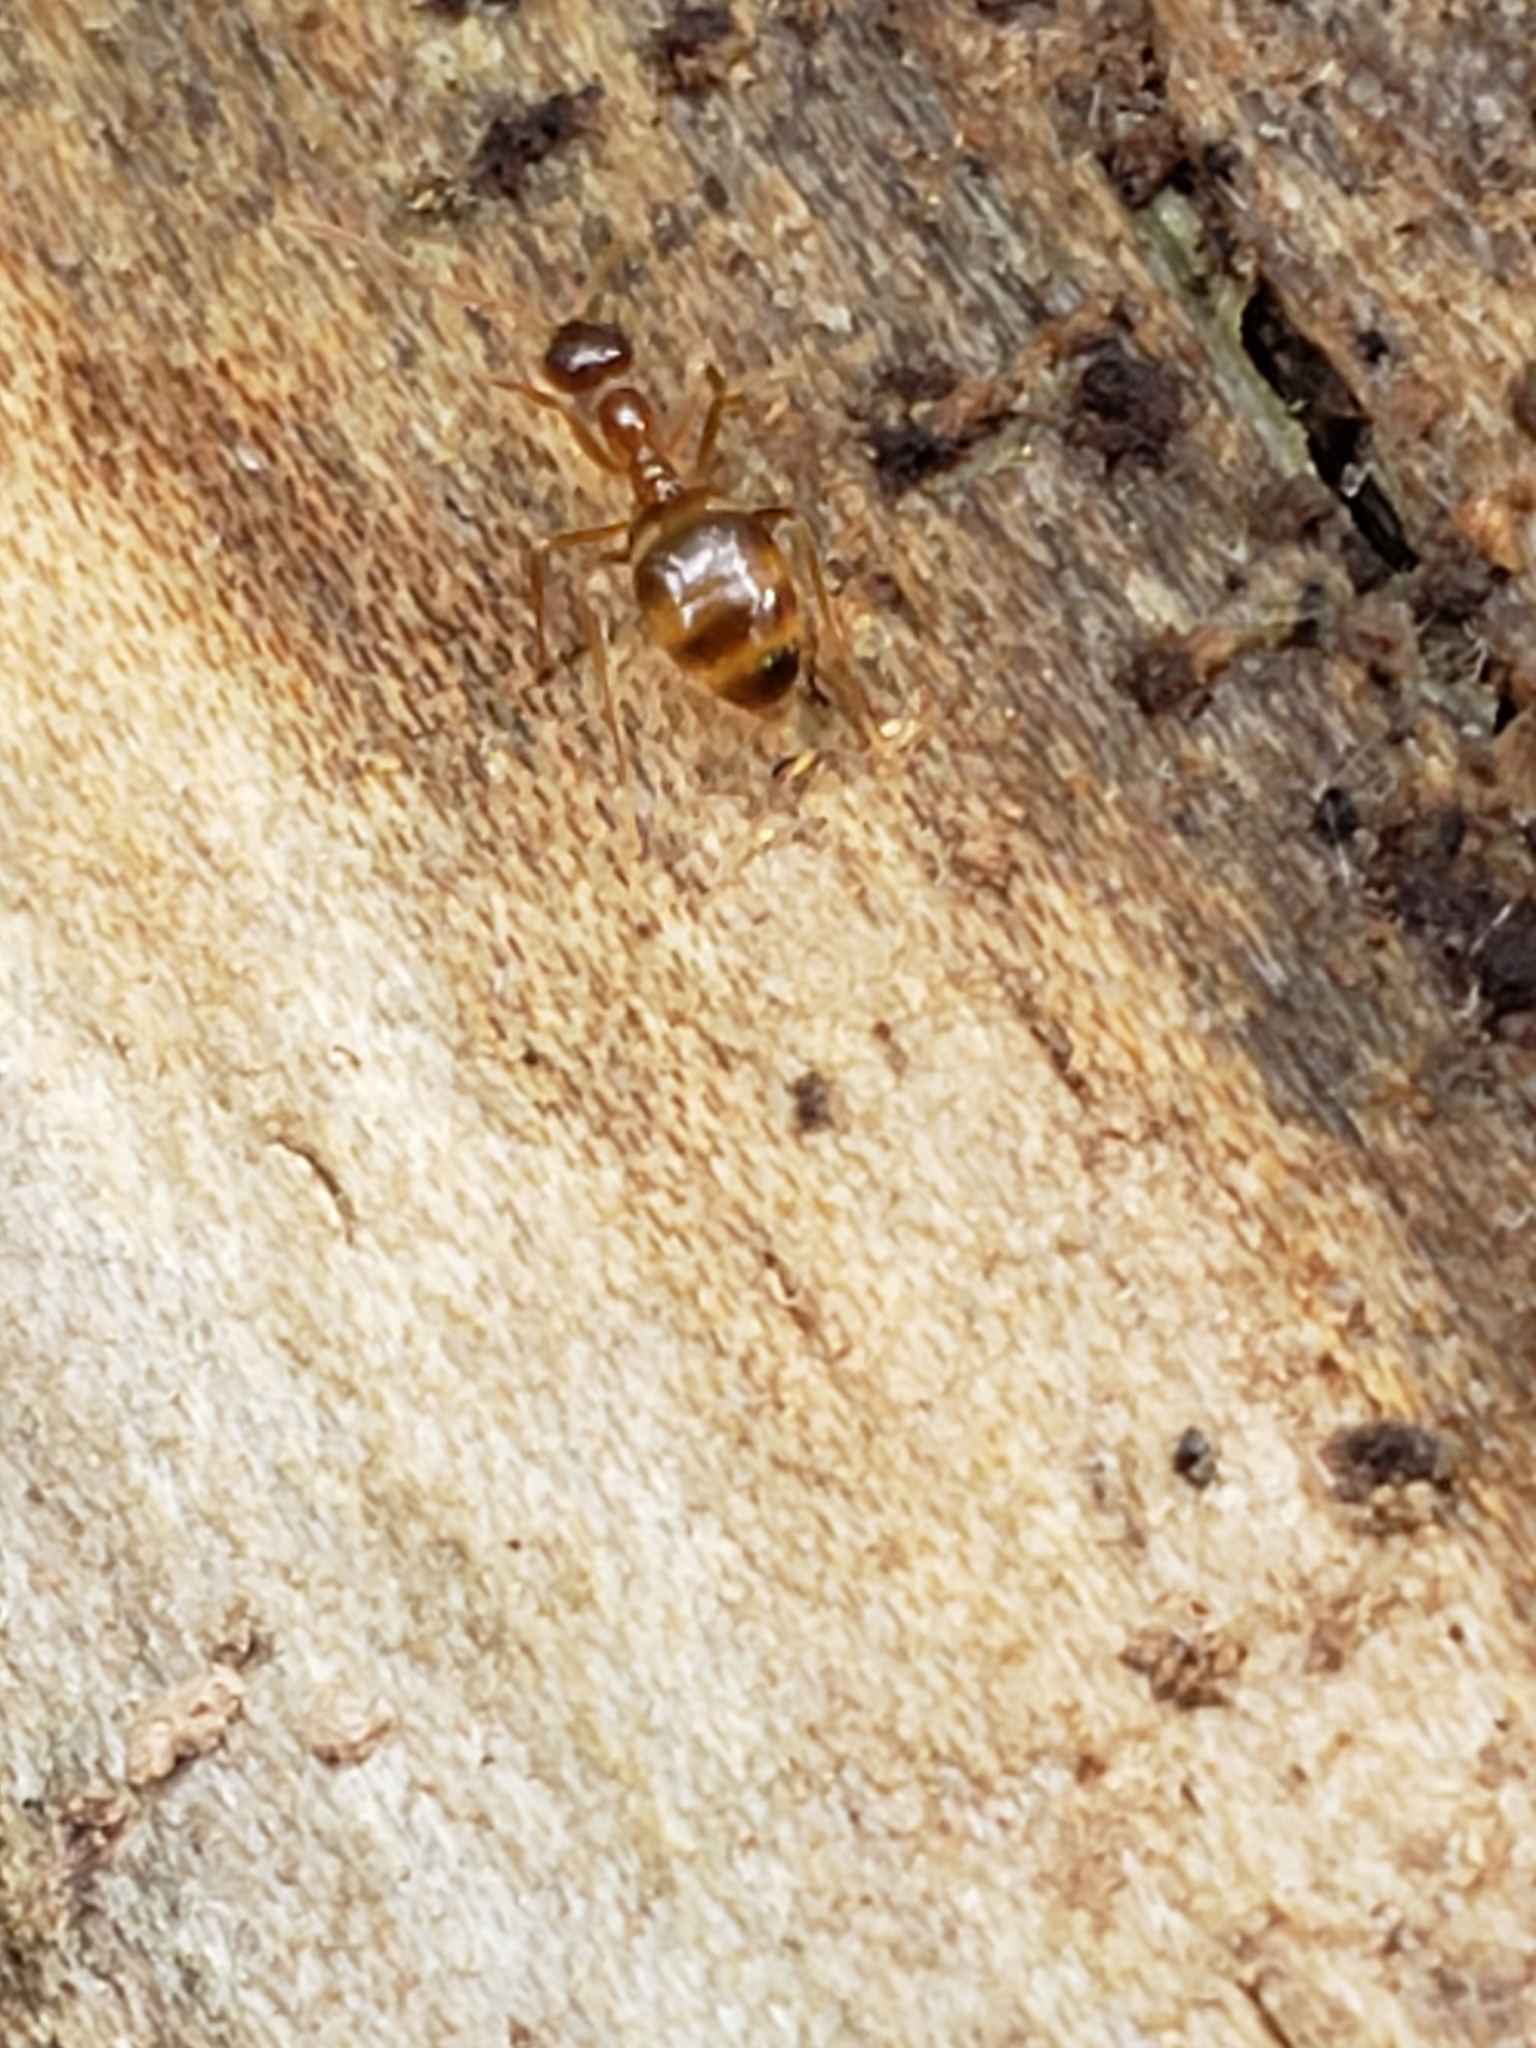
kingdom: Animalia
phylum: Arthropoda
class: Insecta
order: Hymenoptera
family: Formicidae
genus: Prenolepis
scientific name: Prenolepis imparis
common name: Small honey ant
